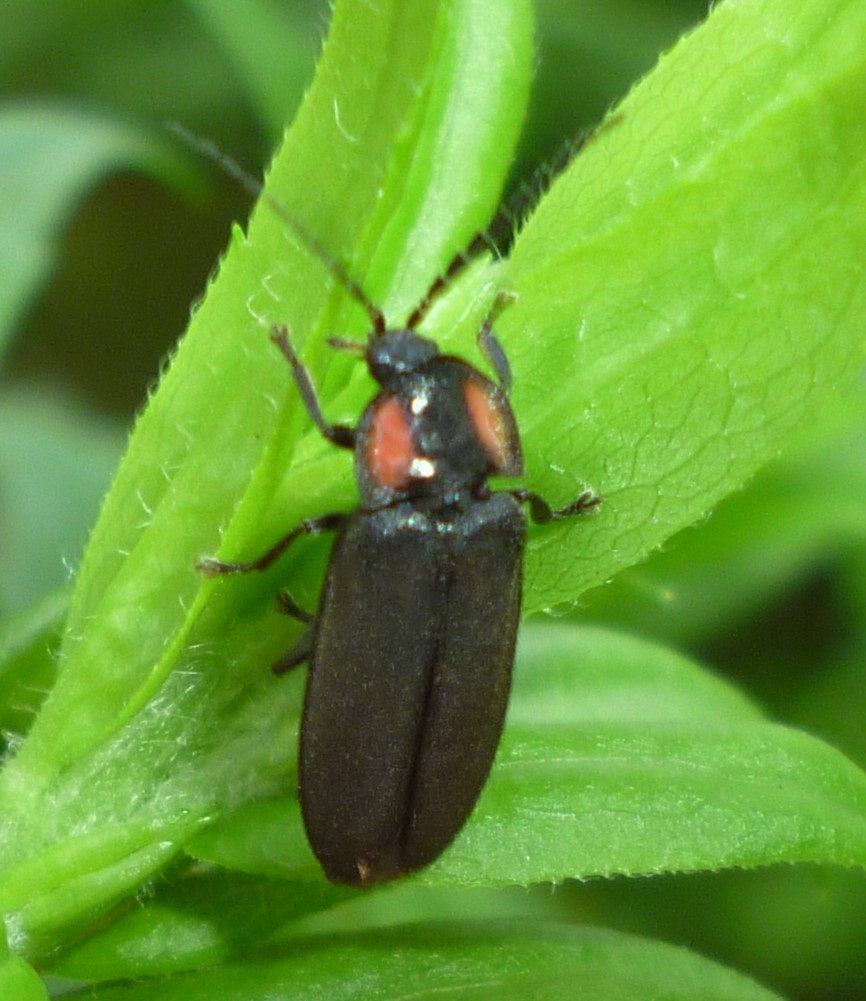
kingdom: Animalia
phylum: Arthropoda
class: Insecta
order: Coleoptera
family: Lampyridae
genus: Pyropyga
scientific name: Pyropyga nigricans
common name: Dark firefly
